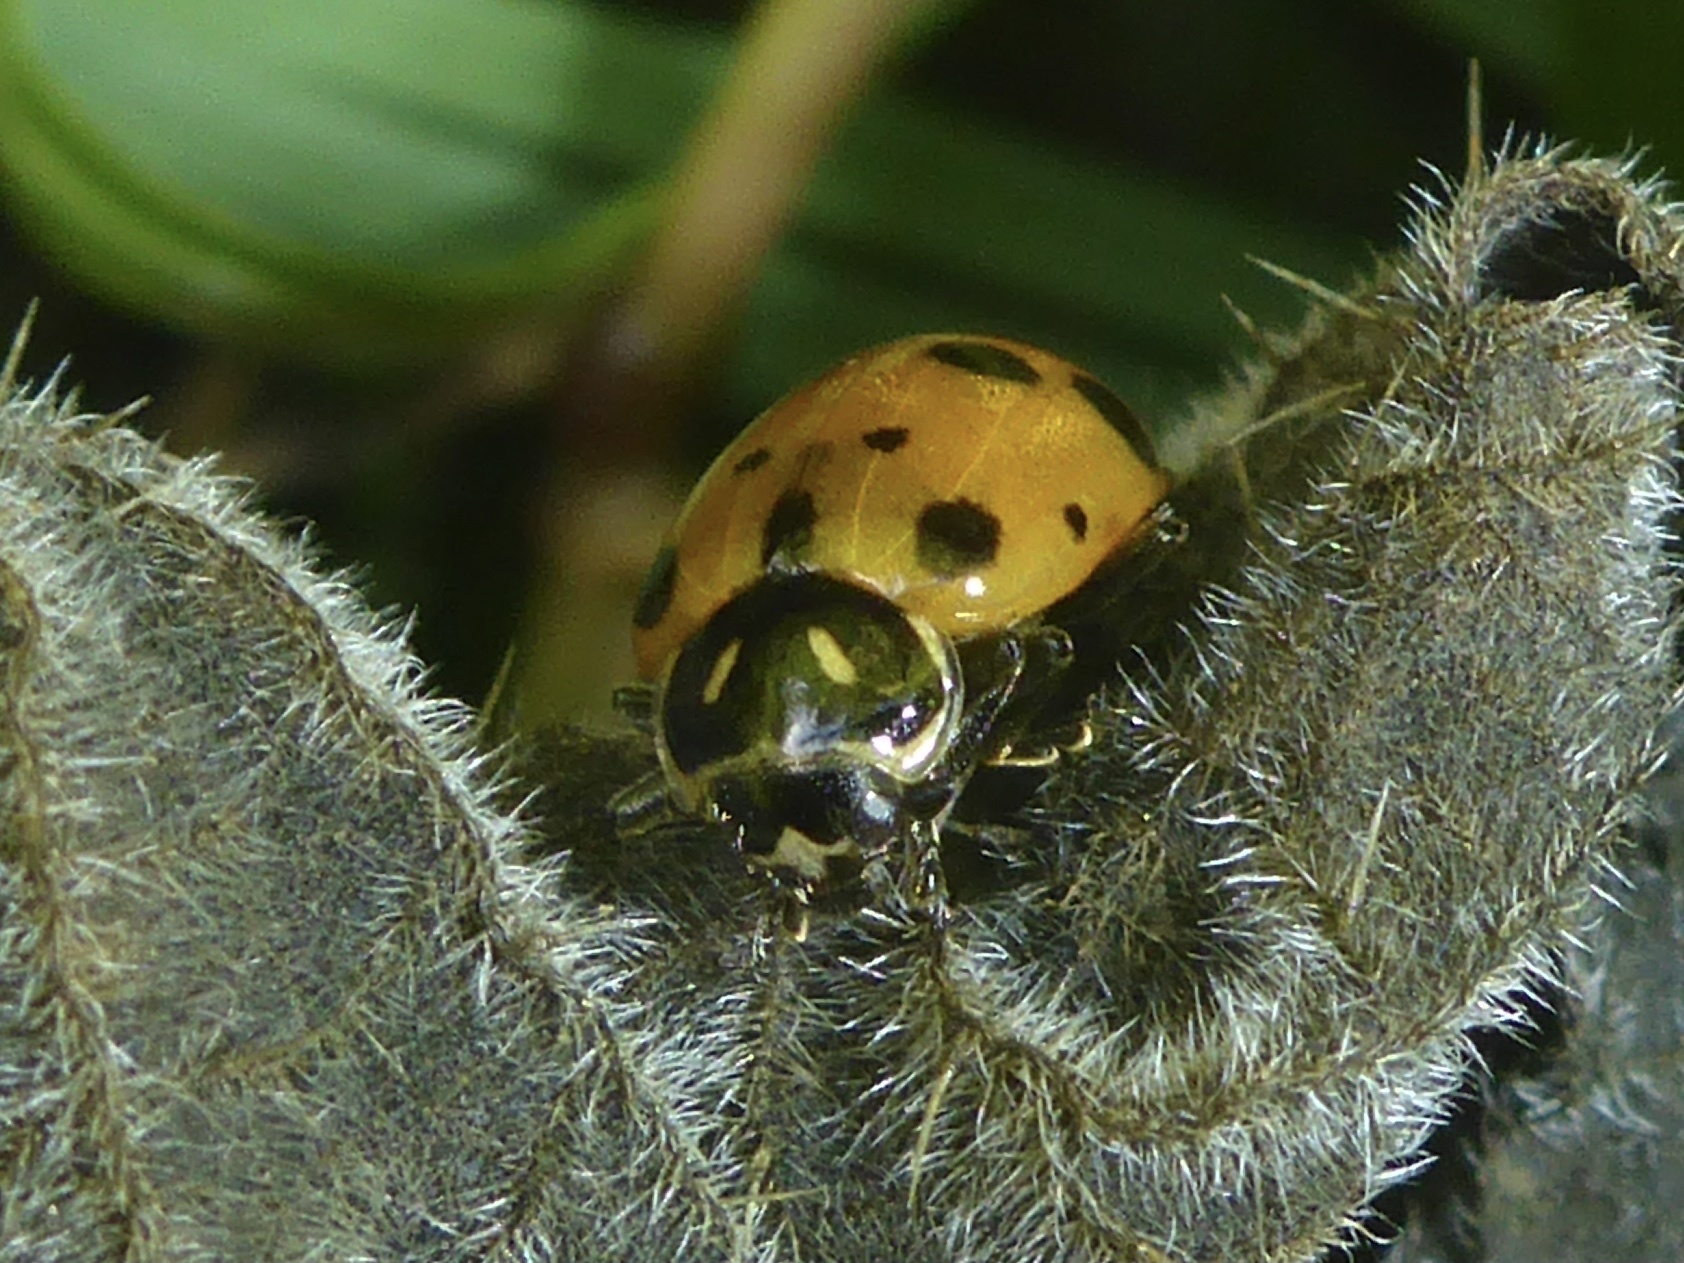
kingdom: Animalia
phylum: Arthropoda
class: Insecta
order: Coleoptera
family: Coccinellidae
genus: Hippodamia
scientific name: Hippodamia convergens
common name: Convergent lady beetle
